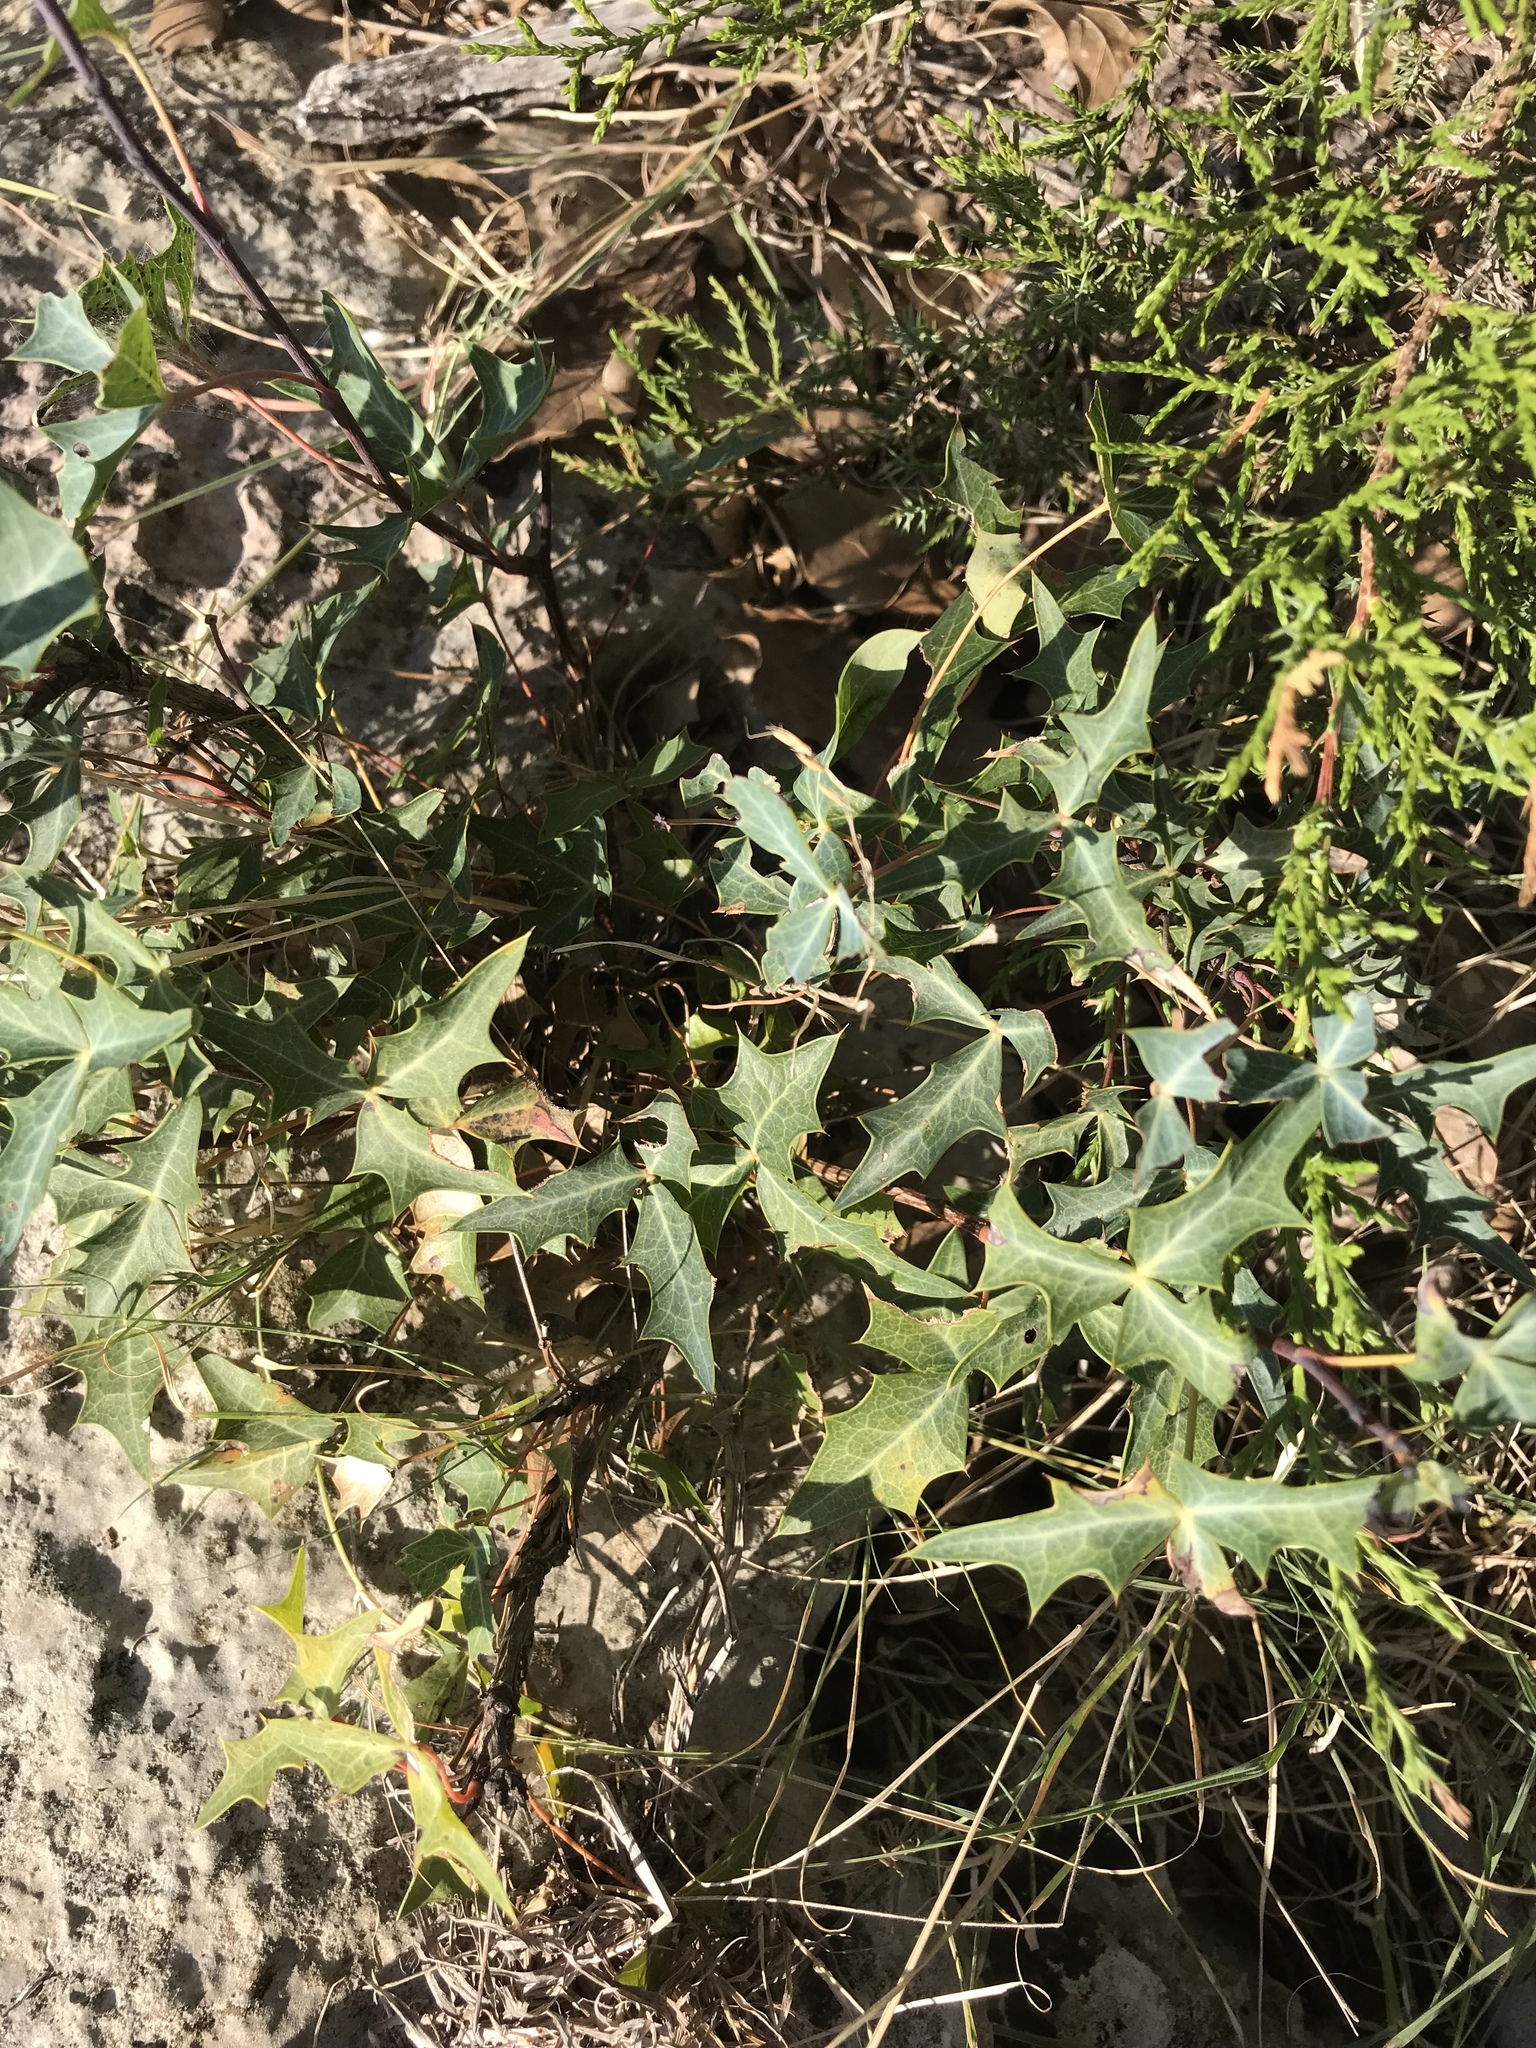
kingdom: Plantae
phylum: Tracheophyta
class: Magnoliopsida
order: Ranunculales
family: Berberidaceae
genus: Alloberberis
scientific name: Alloberberis trifoliolata
